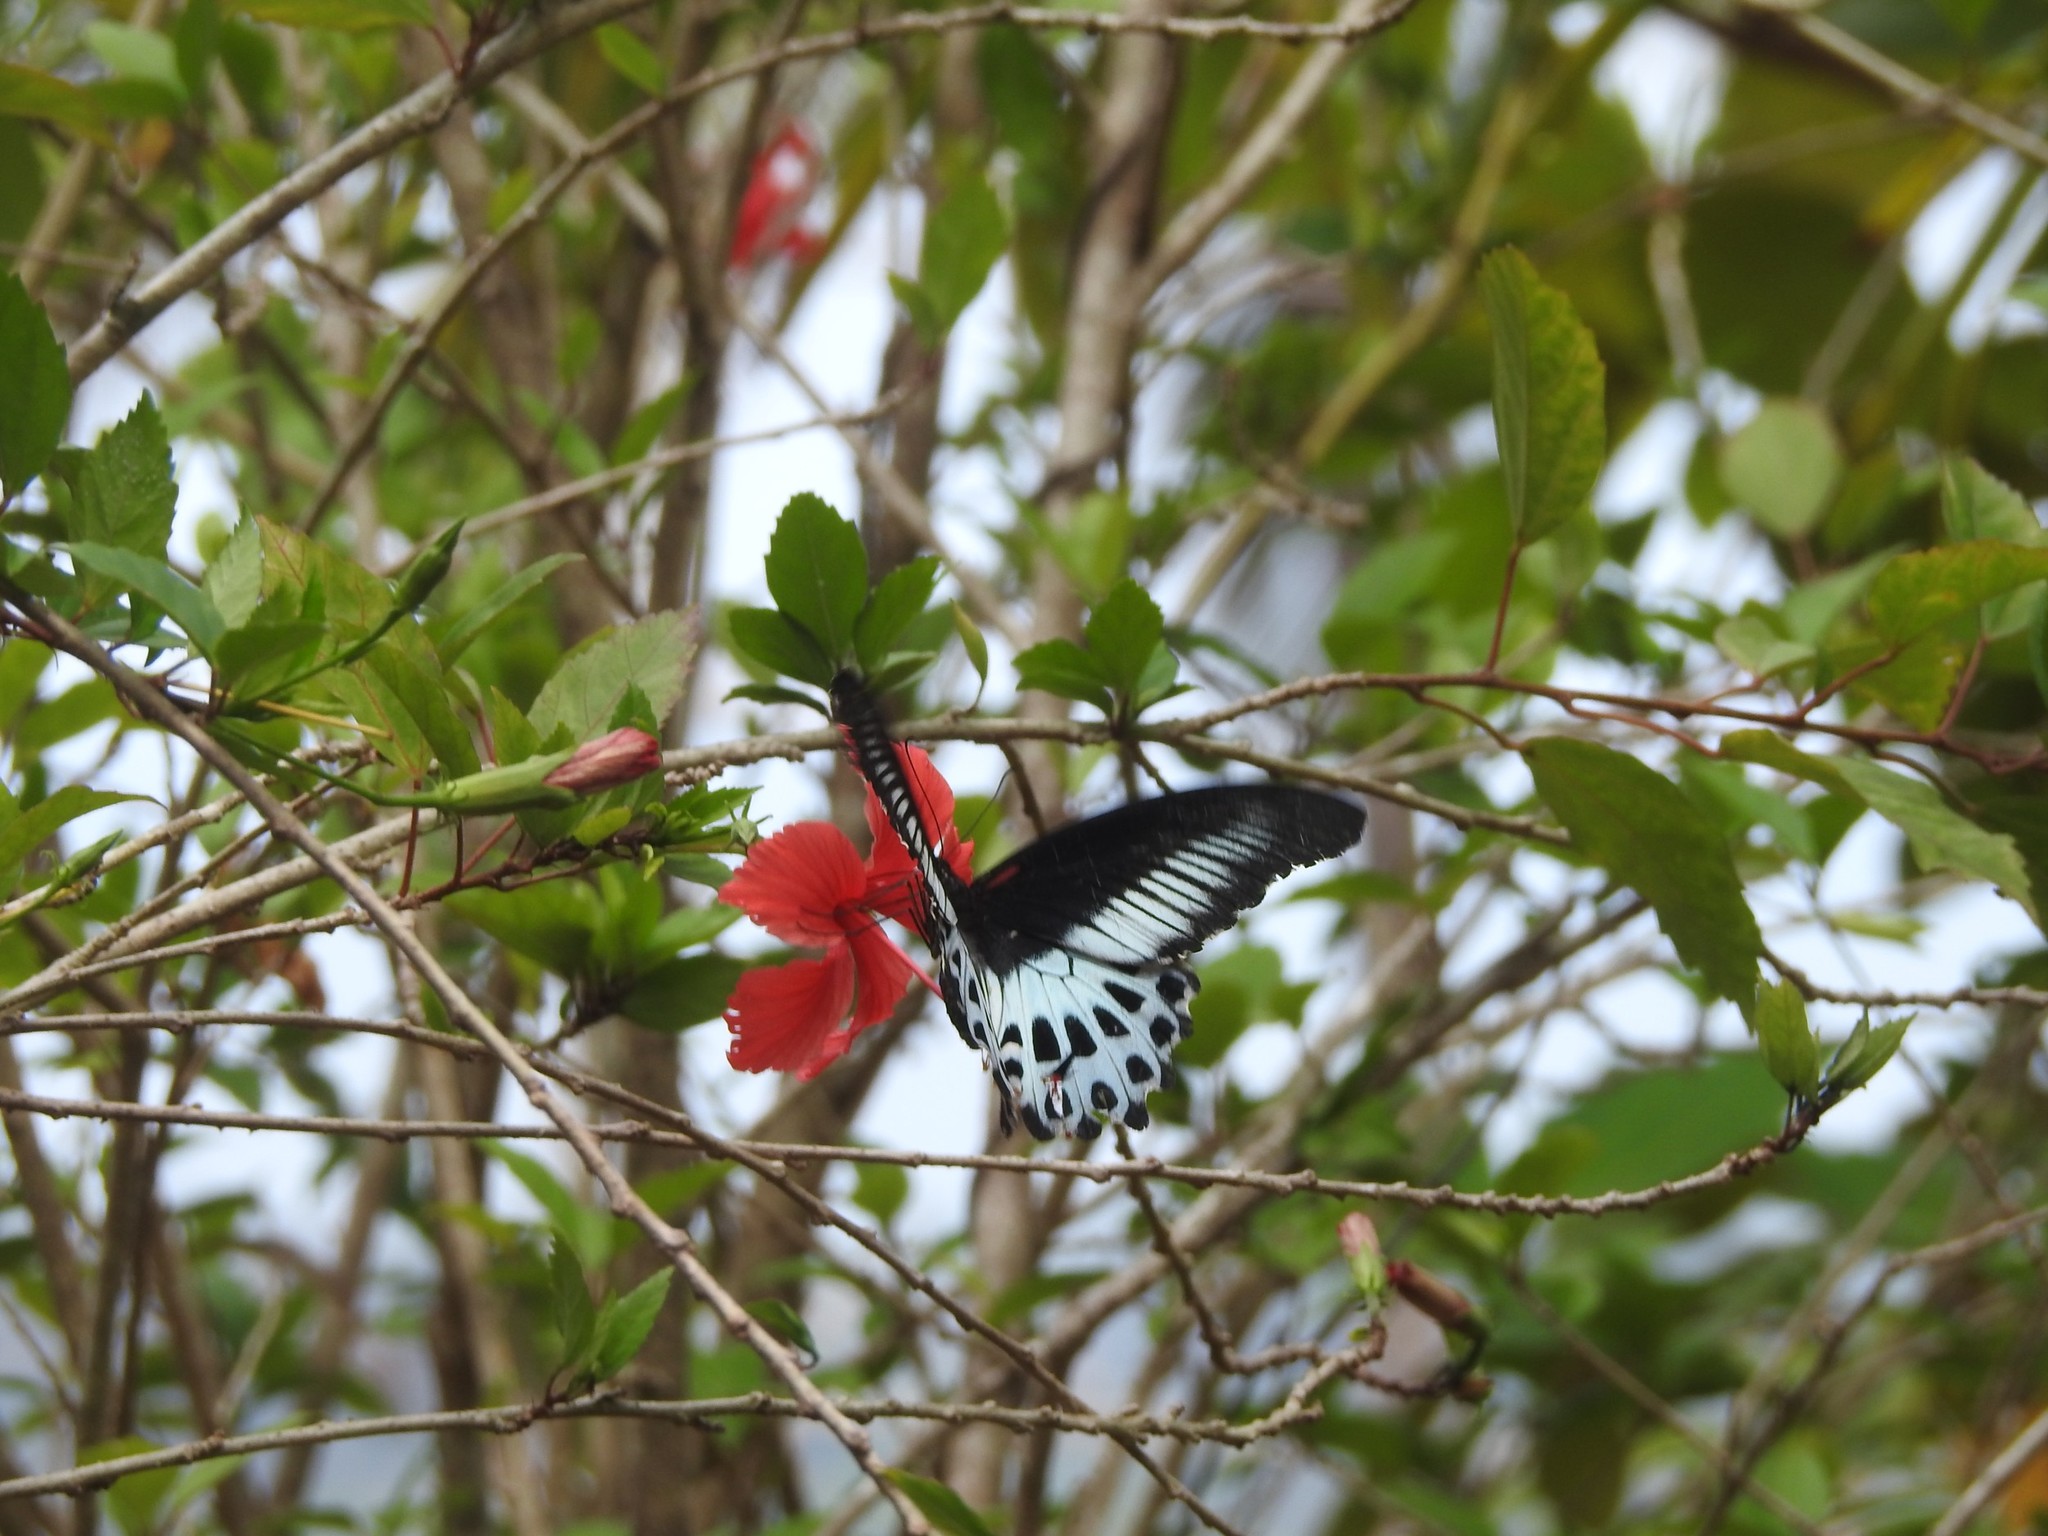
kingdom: Animalia
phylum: Arthropoda
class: Insecta
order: Lepidoptera
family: Papilionidae
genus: Papilio
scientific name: Papilio memnon
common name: Great mormon
